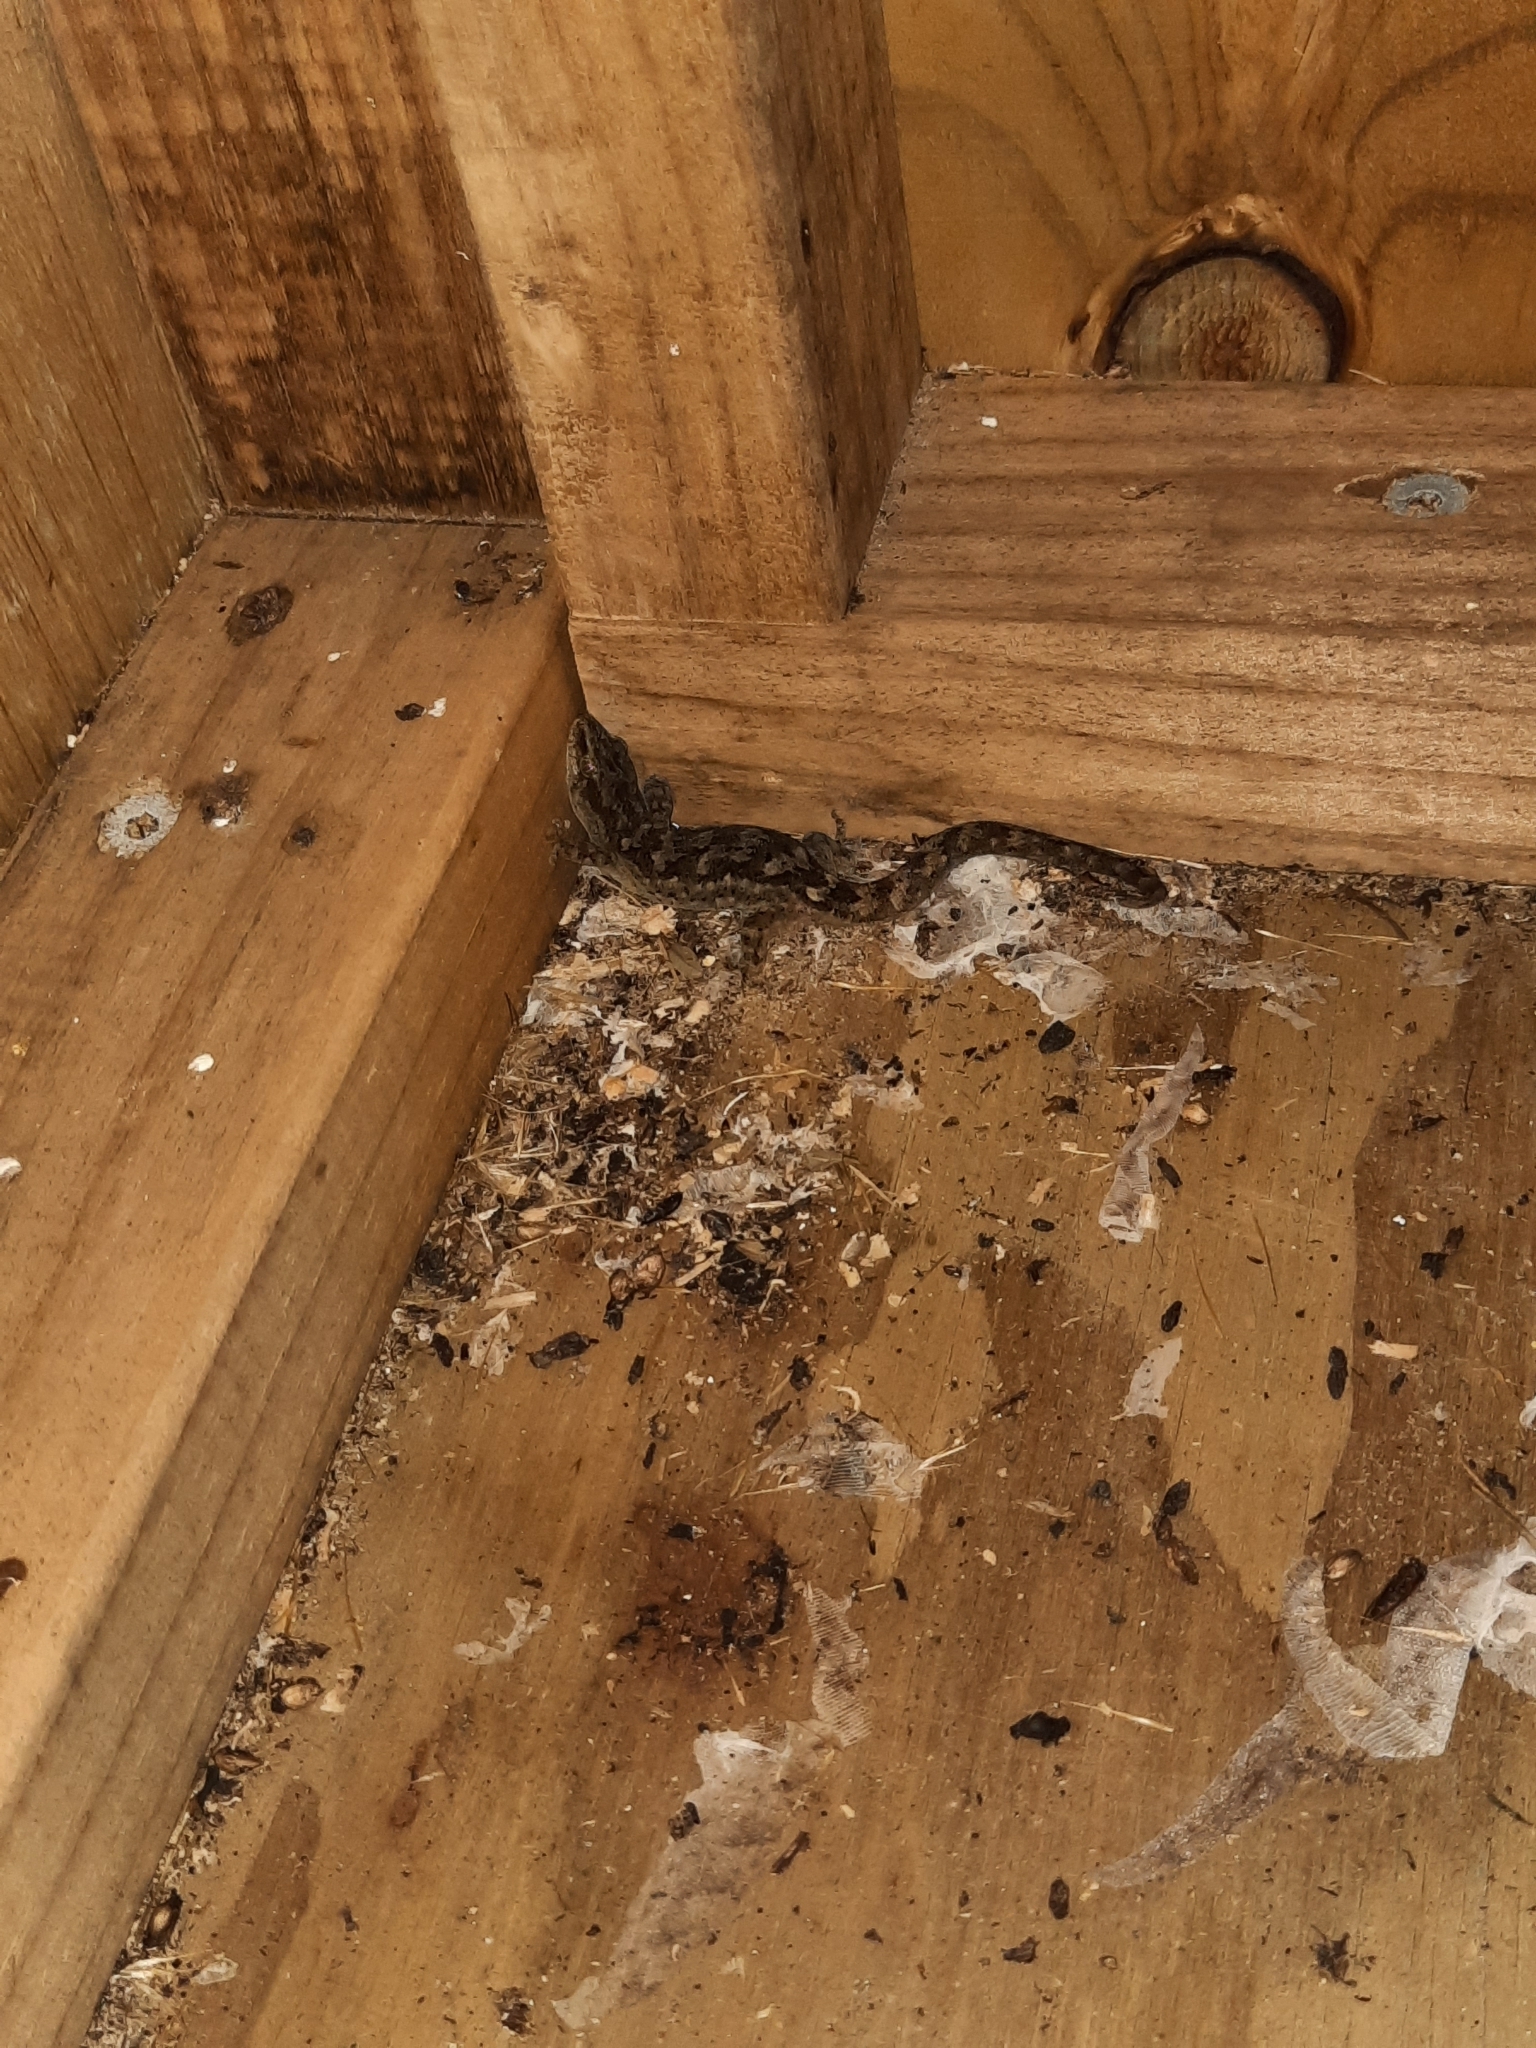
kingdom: Animalia
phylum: Chordata
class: Squamata
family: Diplodactylidae
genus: Woodworthia
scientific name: Woodworthia maculata
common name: Raukawa gecko
